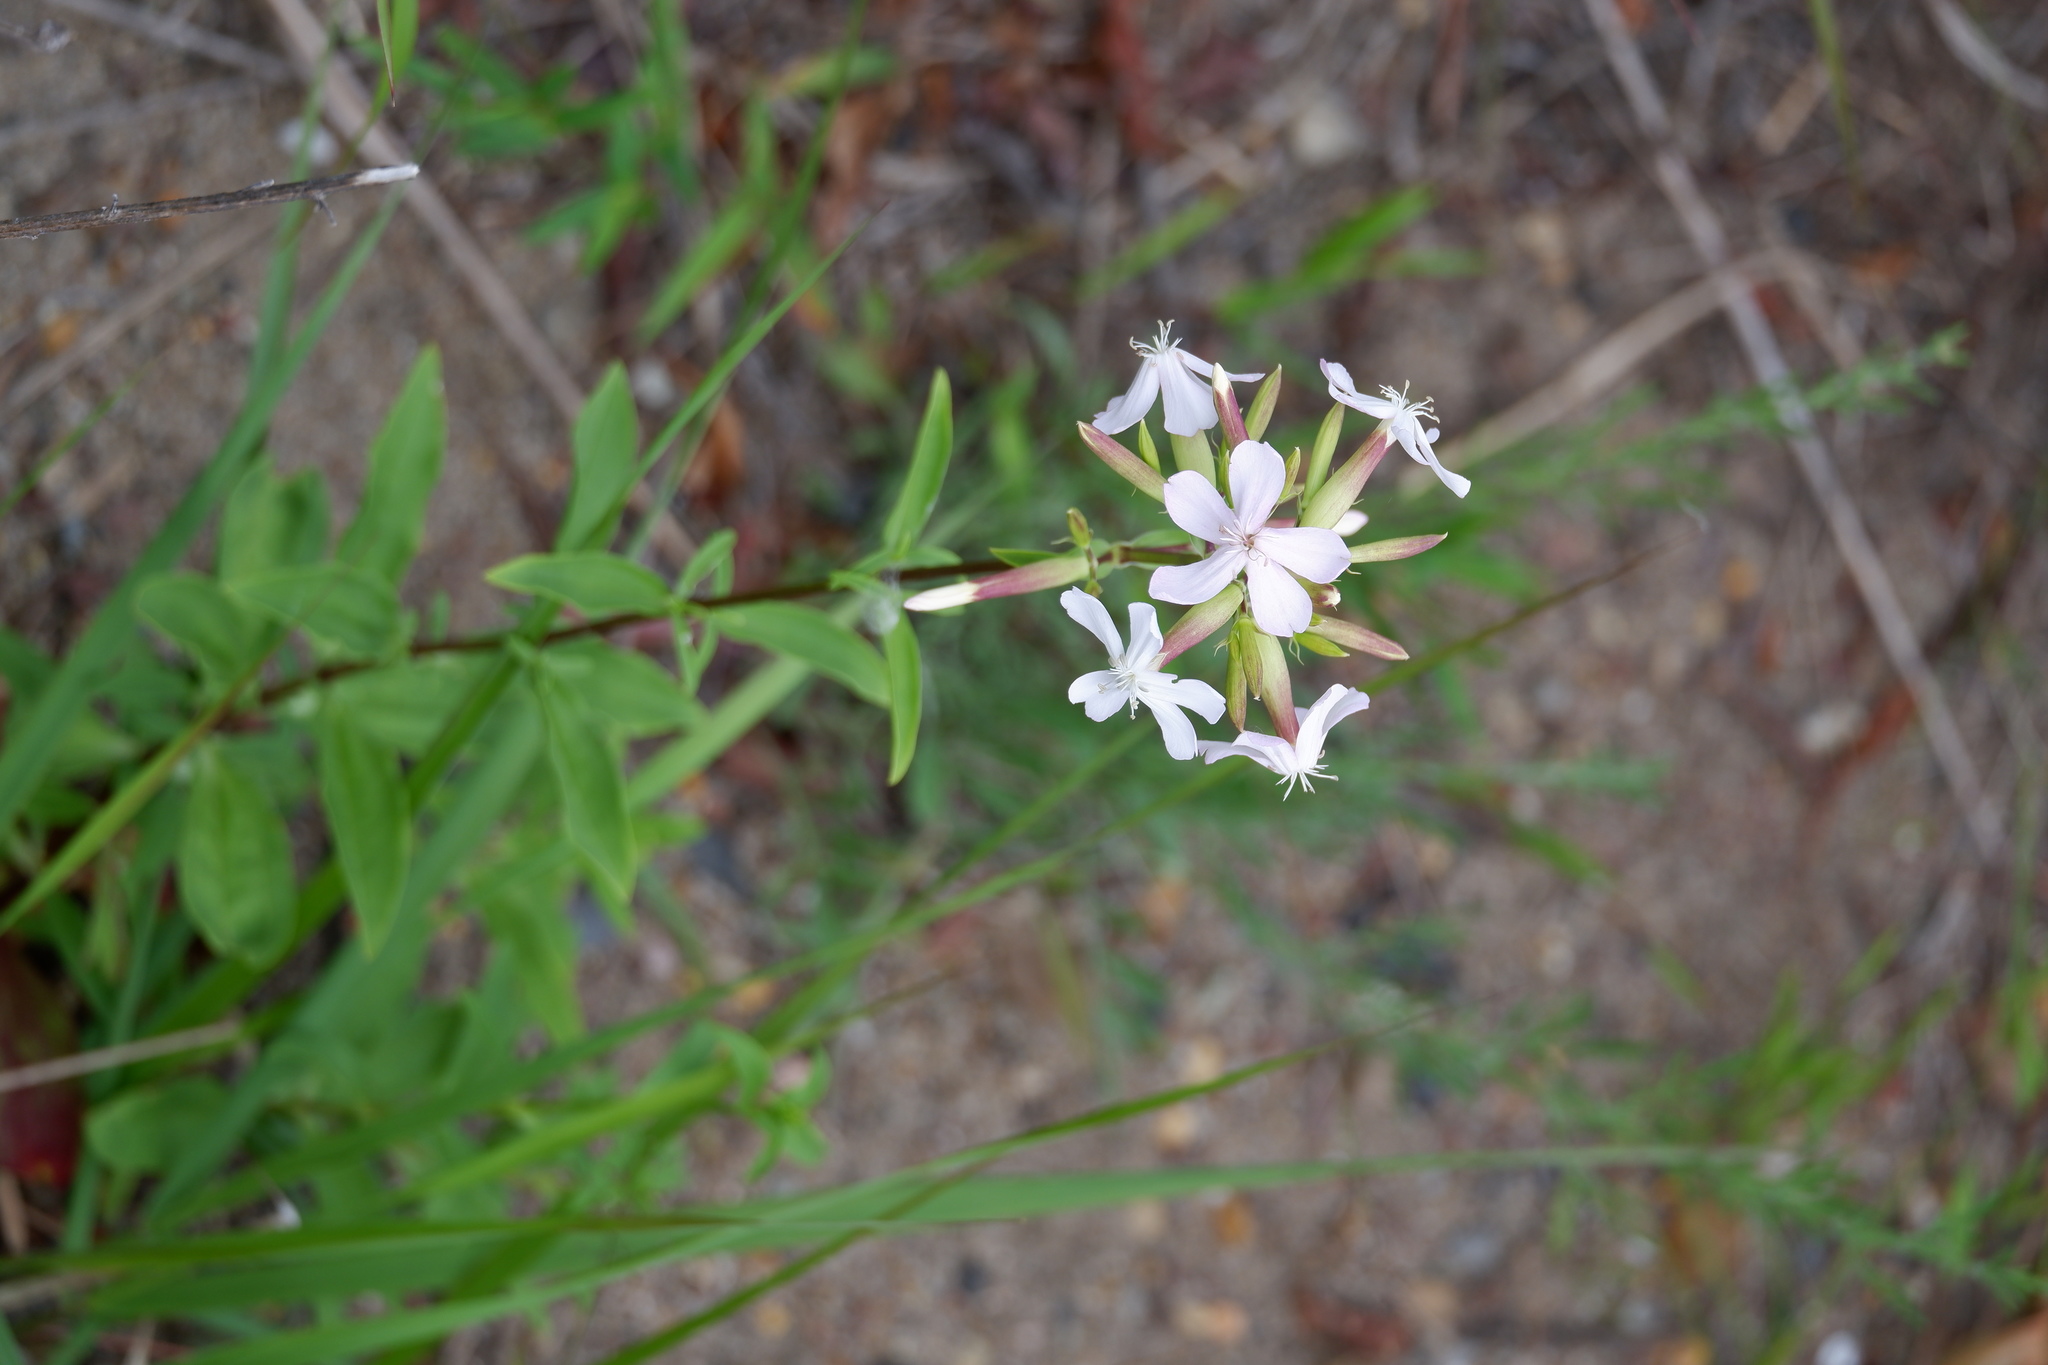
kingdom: Plantae
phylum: Tracheophyta
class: Magnoliopsida
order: Caryophyllales
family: Caryophyllaceae
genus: Saponaria
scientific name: Saponaria officinalis
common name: Soapwort
